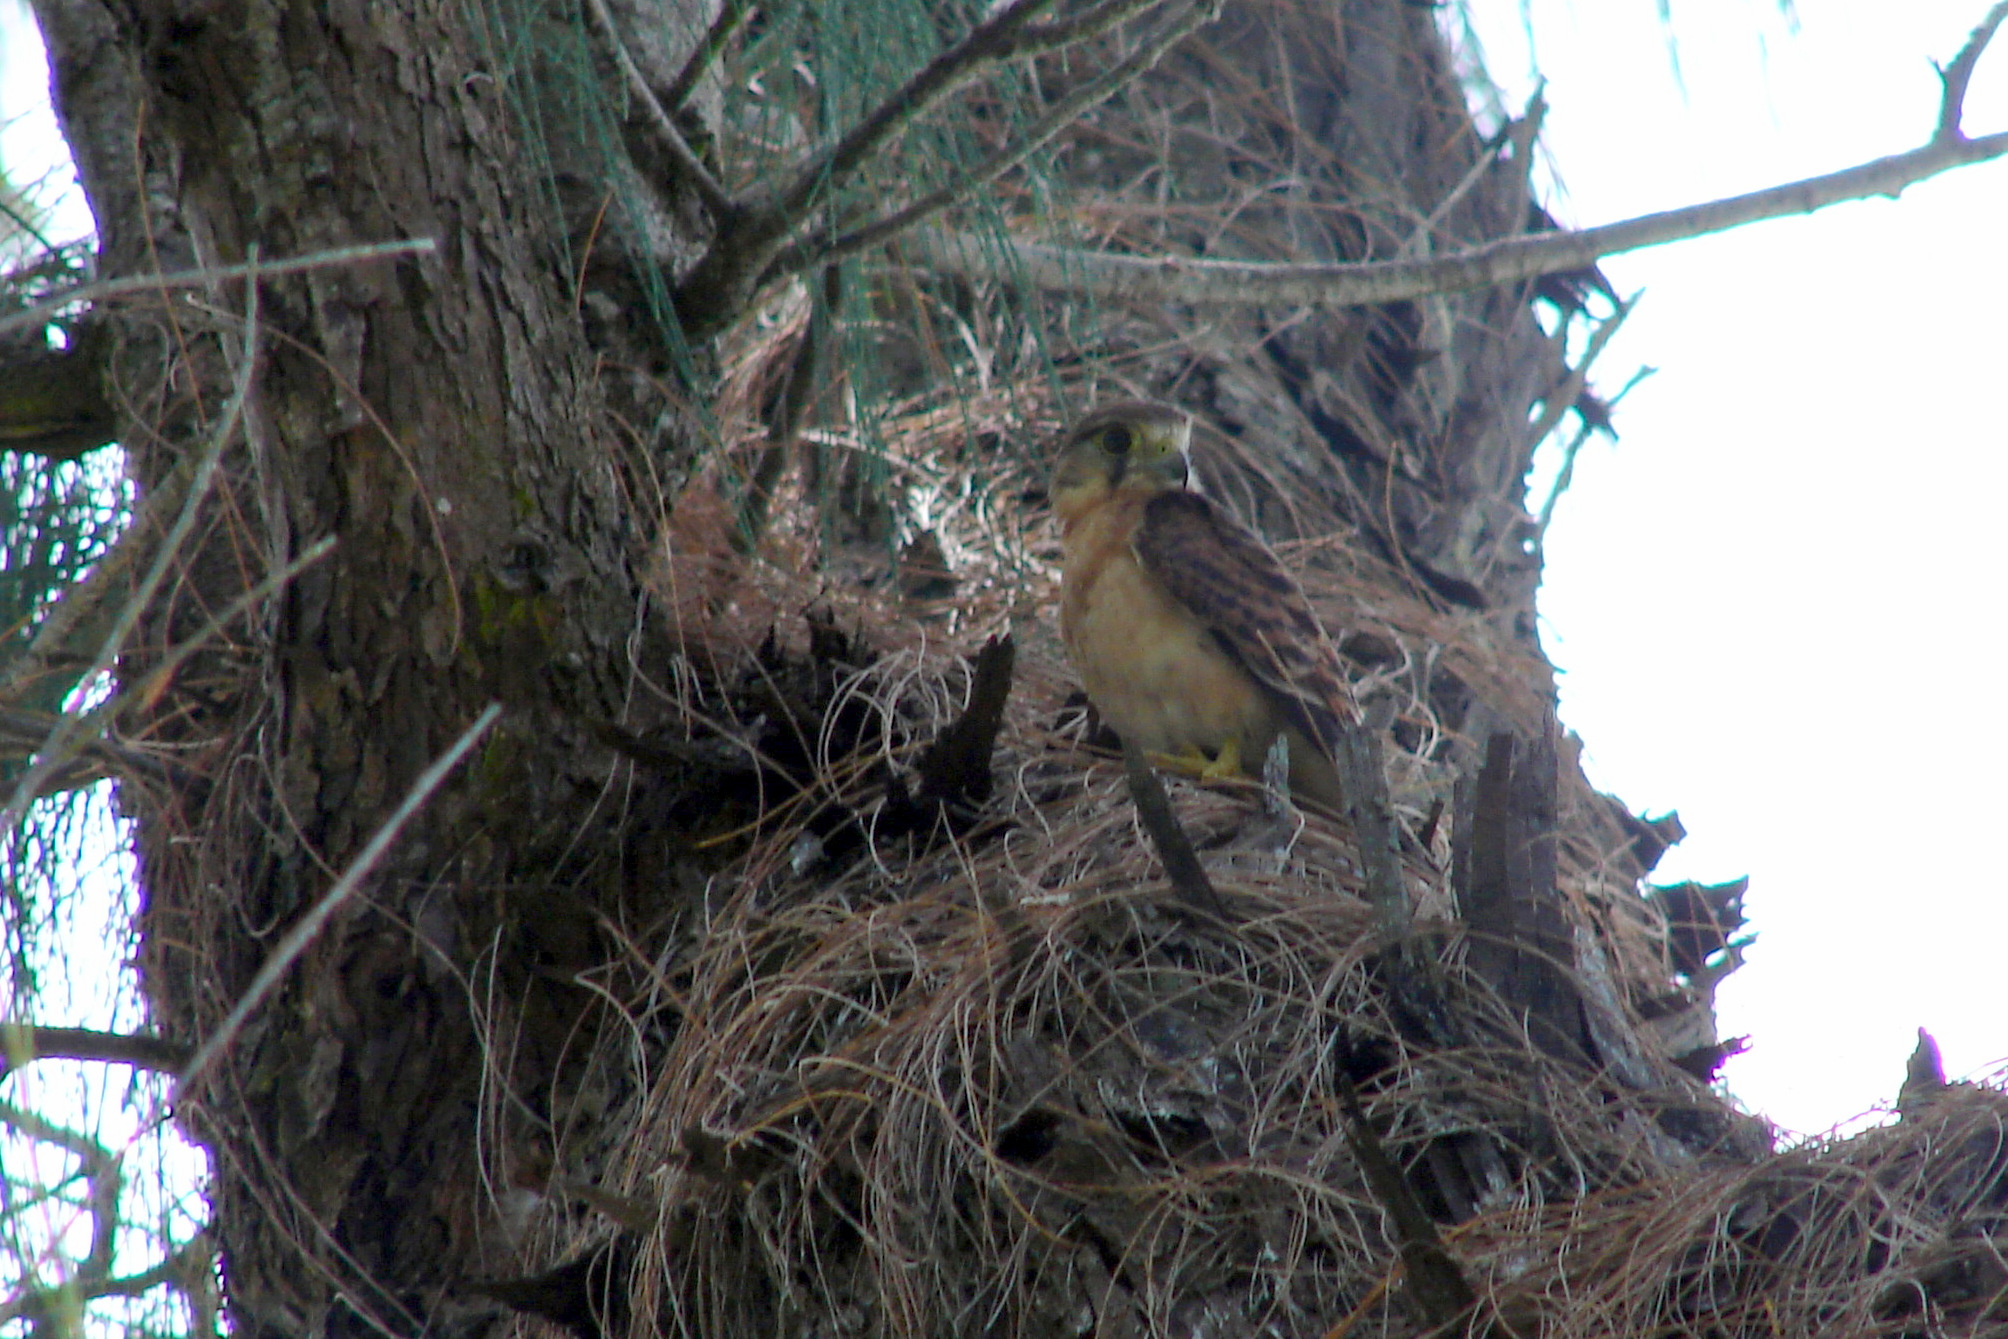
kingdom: Animalia
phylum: Chordata
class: Aves
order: Falconiformes
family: Falconidae
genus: Falco
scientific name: Falco araeus
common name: Seychelles kestrel
